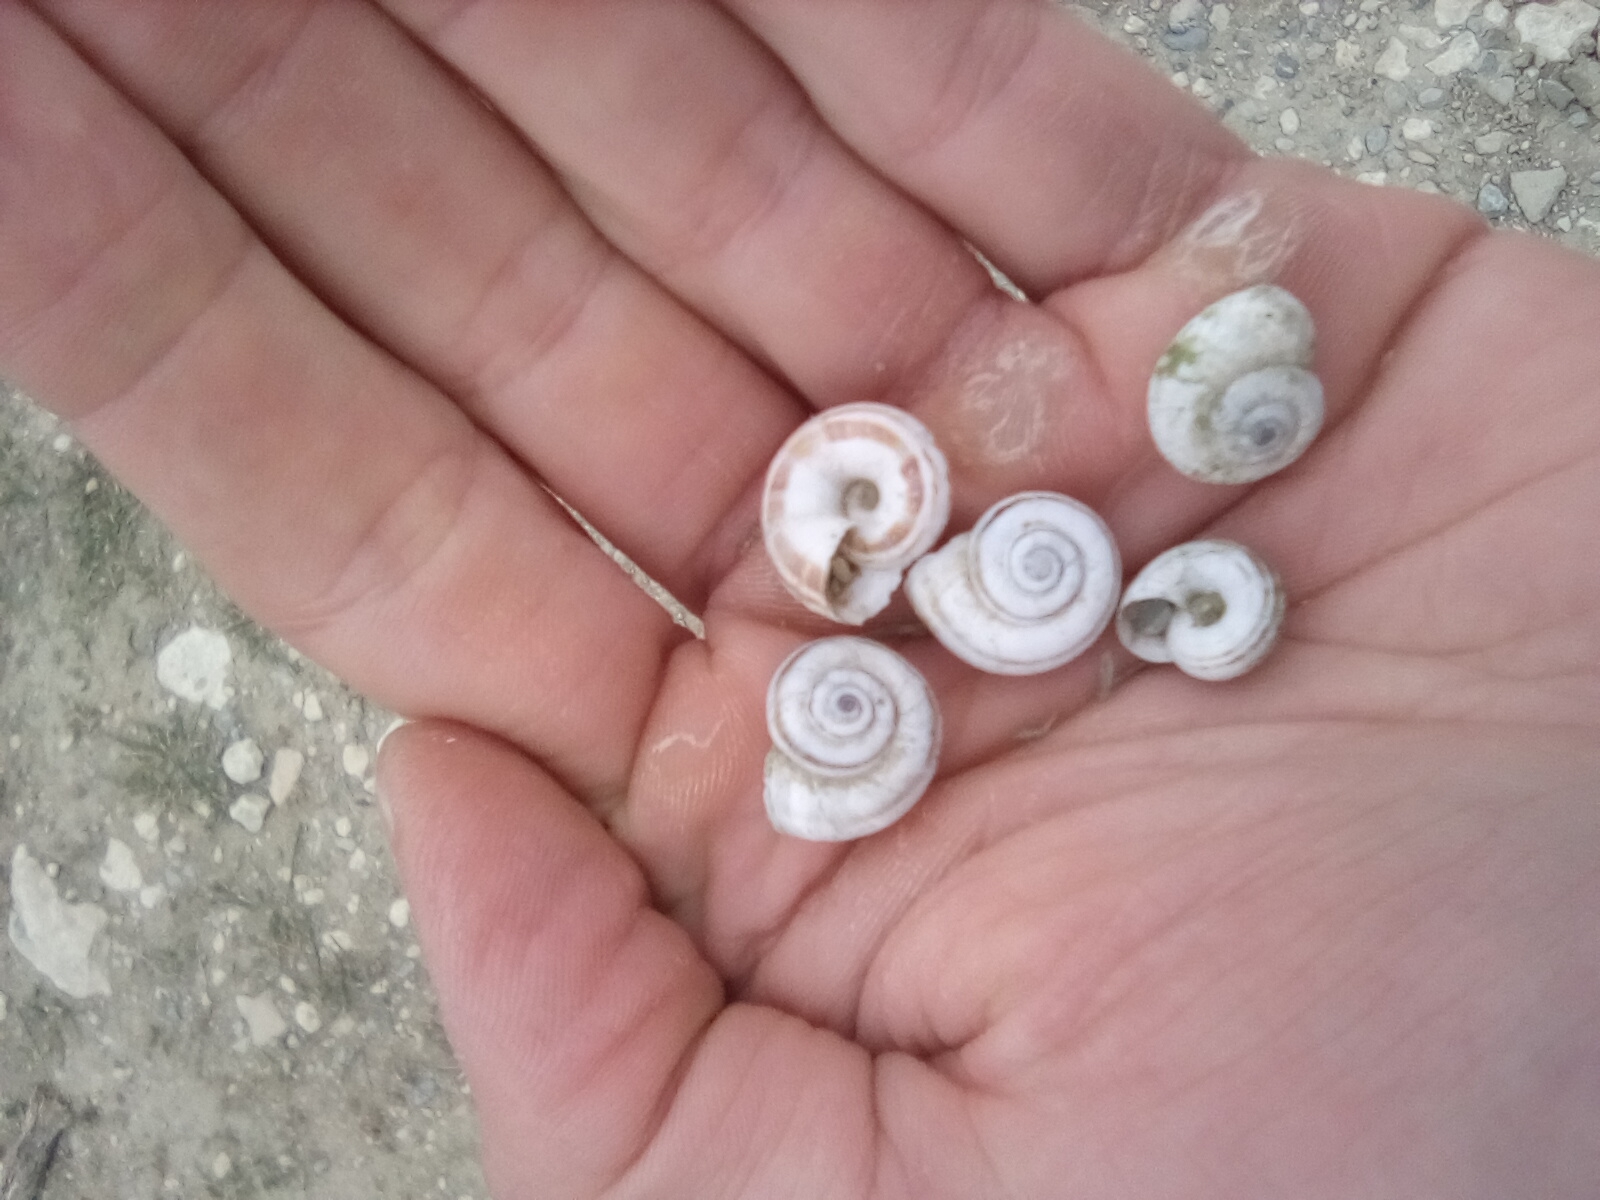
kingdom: Animalia
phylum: Mollusca
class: Gastropoda
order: Stylommatophora
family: Geomitridae
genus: Xeropicta
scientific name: Xeropicta derbentina
